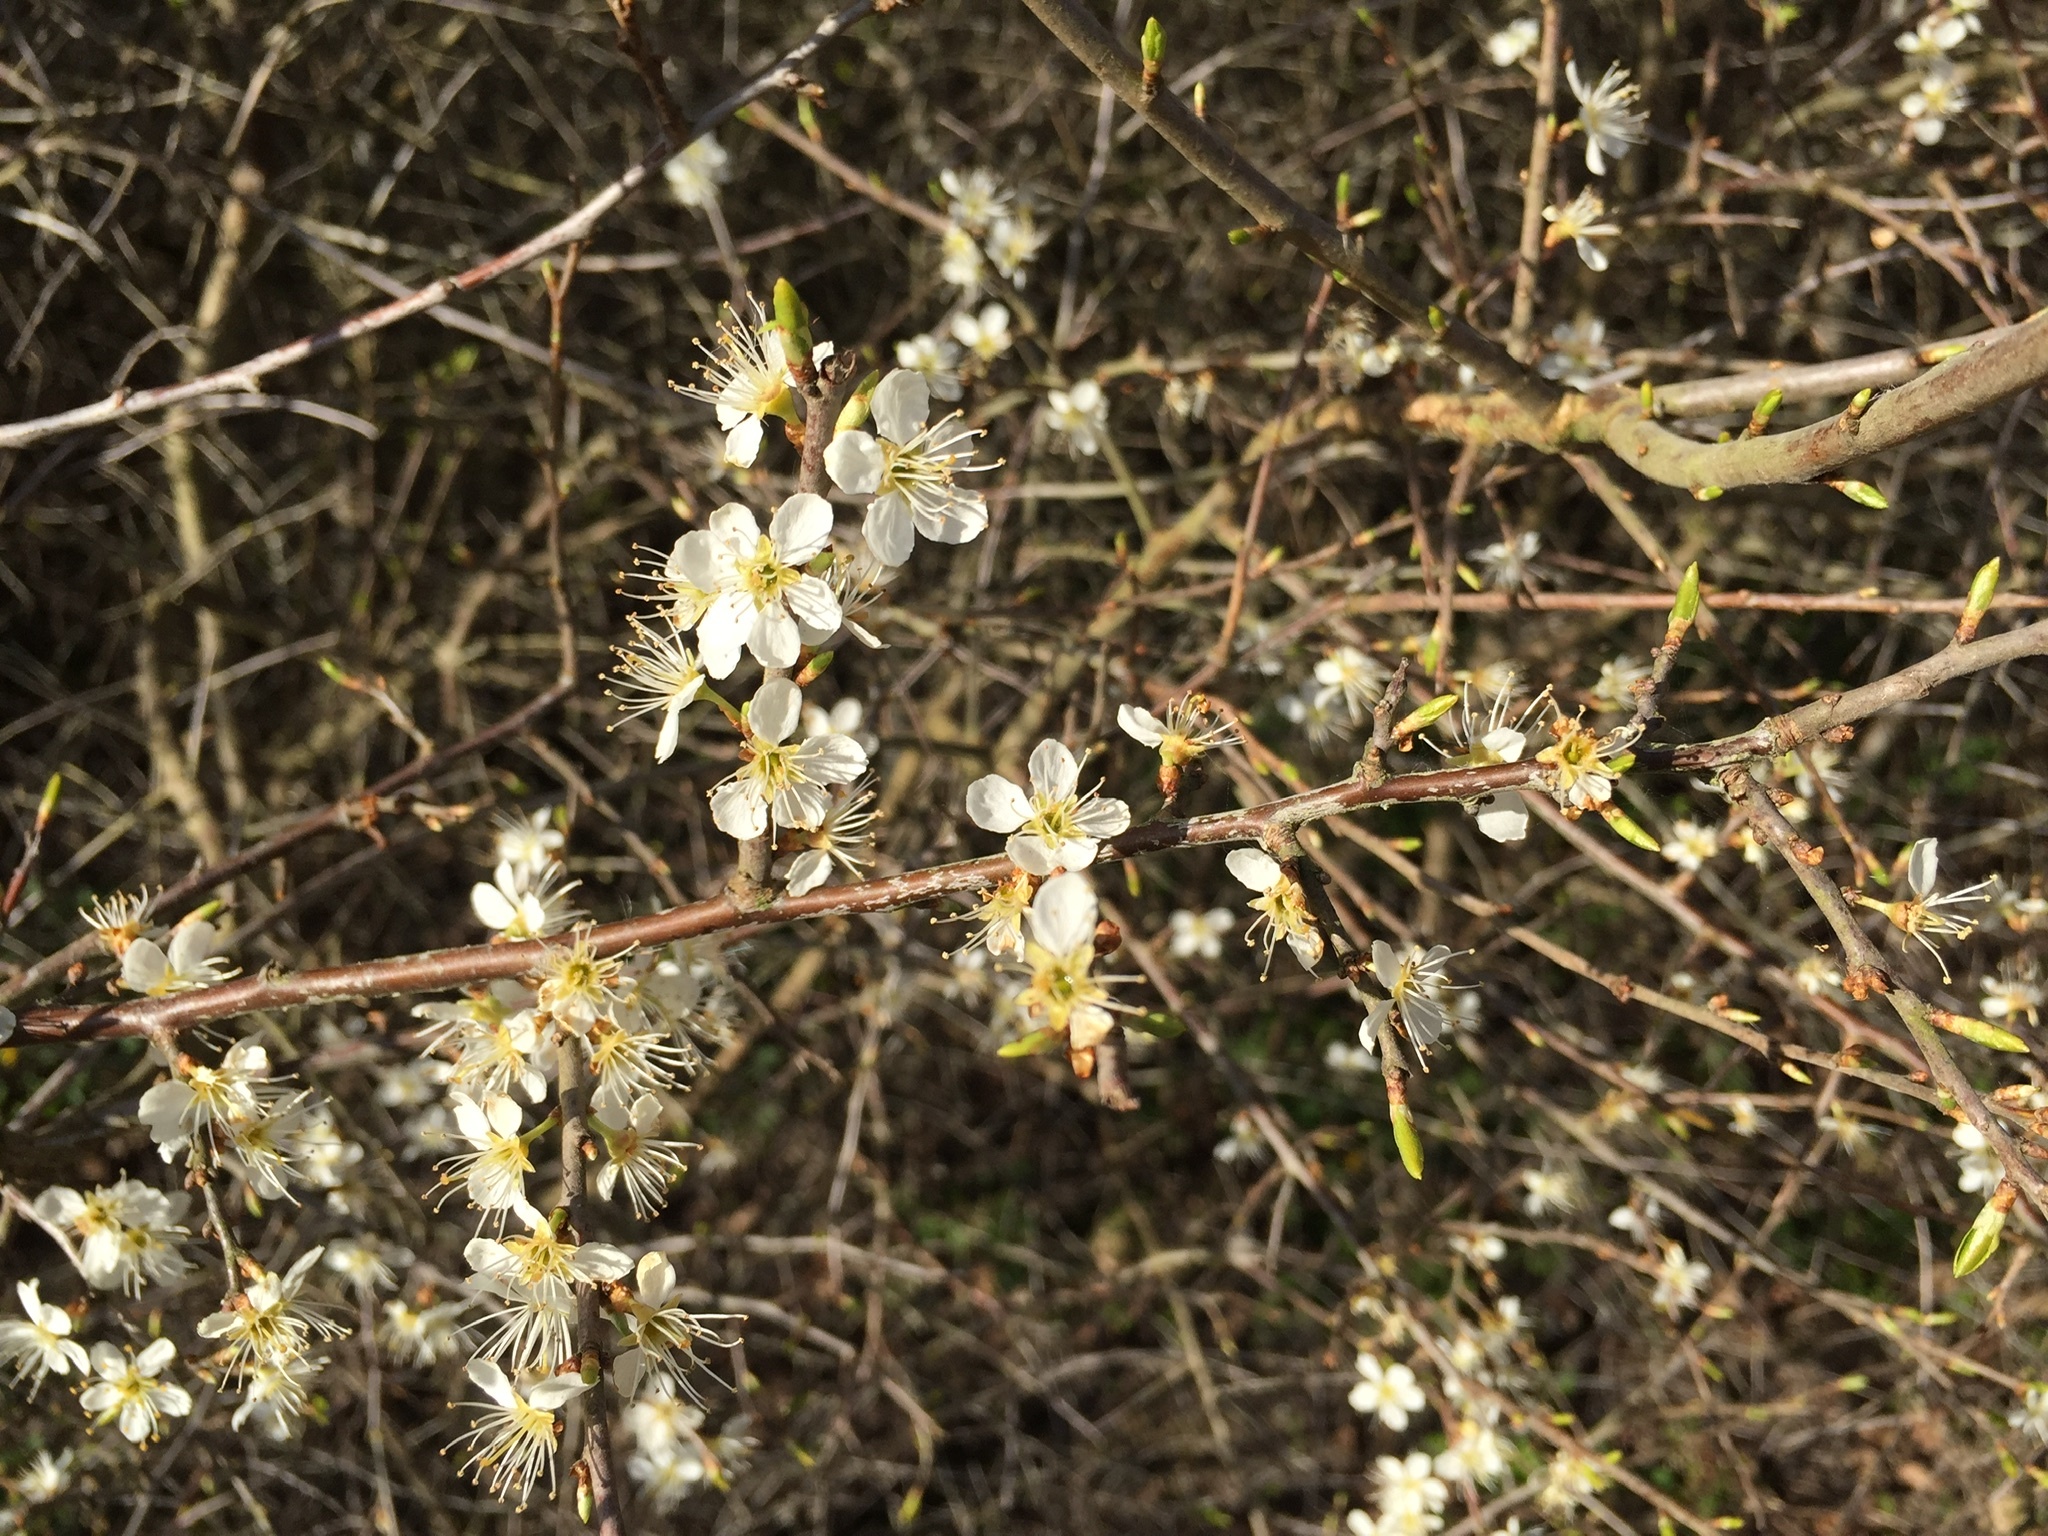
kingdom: Plantae
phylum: Tracheophyta
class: Magnoliopsida
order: Rosales
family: Rosaceae
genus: Prunus
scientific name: Prunus spinosa
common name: Blackthorn
